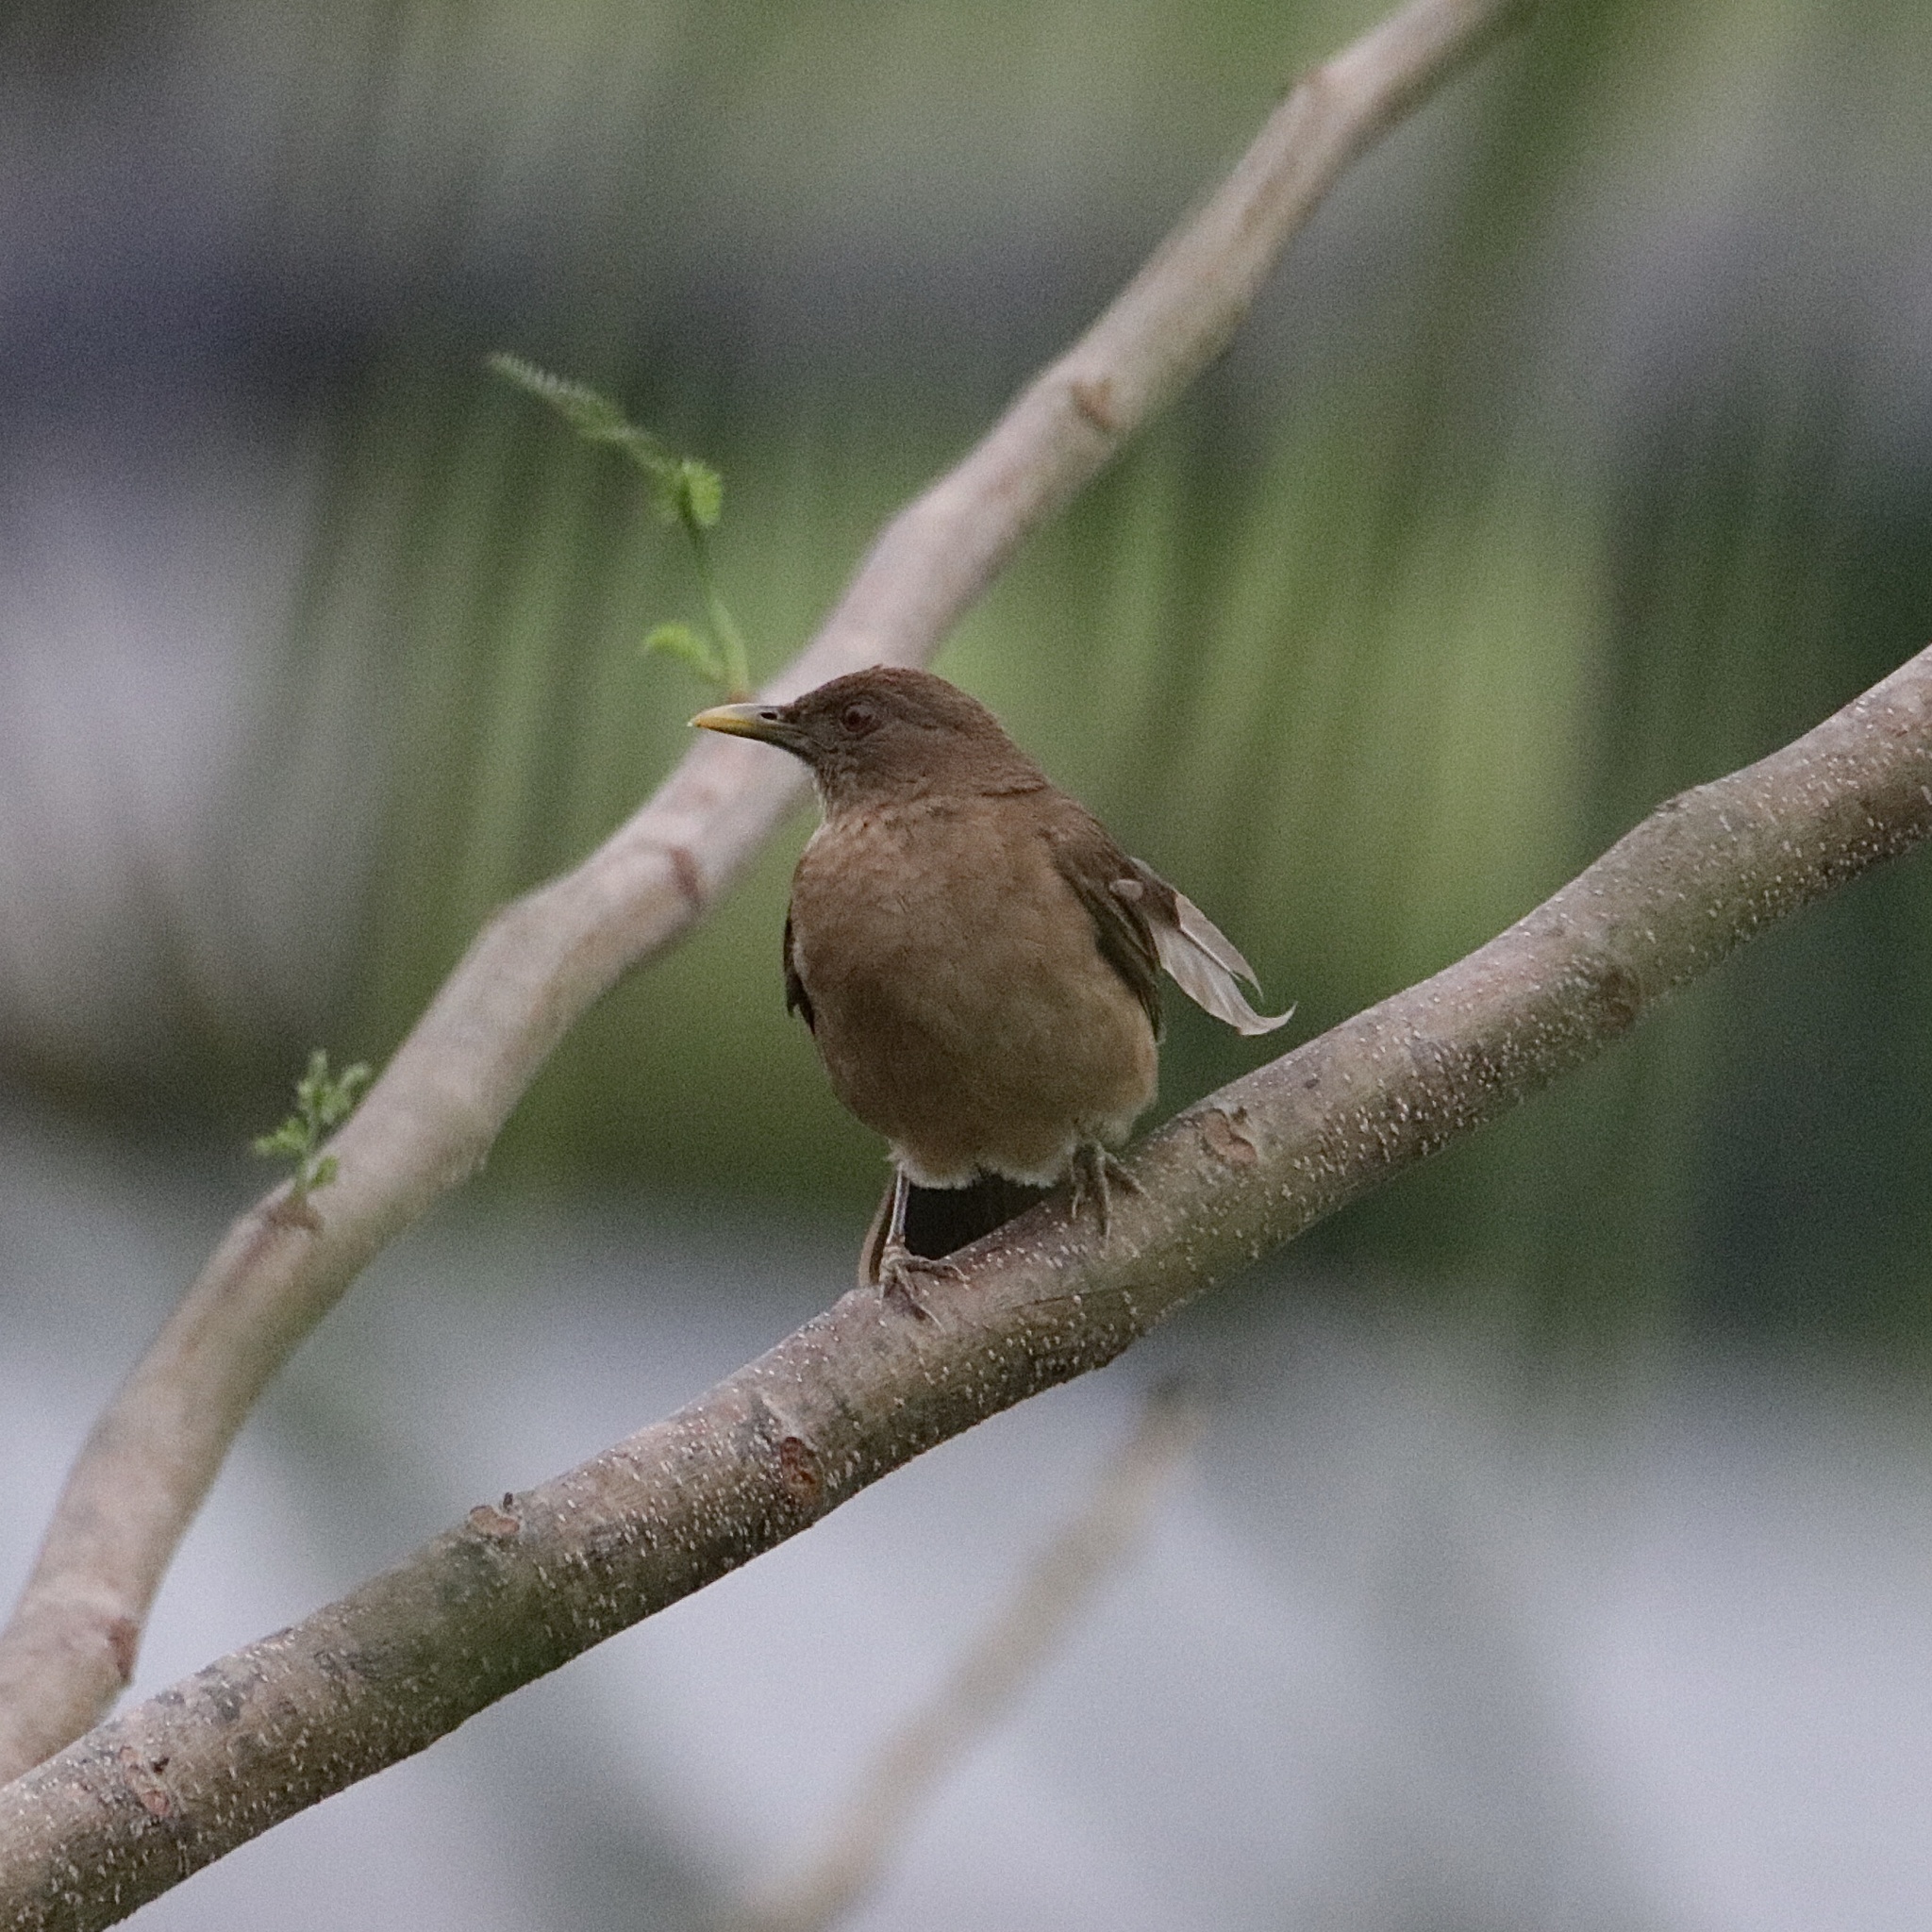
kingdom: Animalia
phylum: Chordata
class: Aves
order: Passeriformes
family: Turdidae
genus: Turdus
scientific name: Turdus grayi
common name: Clay-colored thrush
